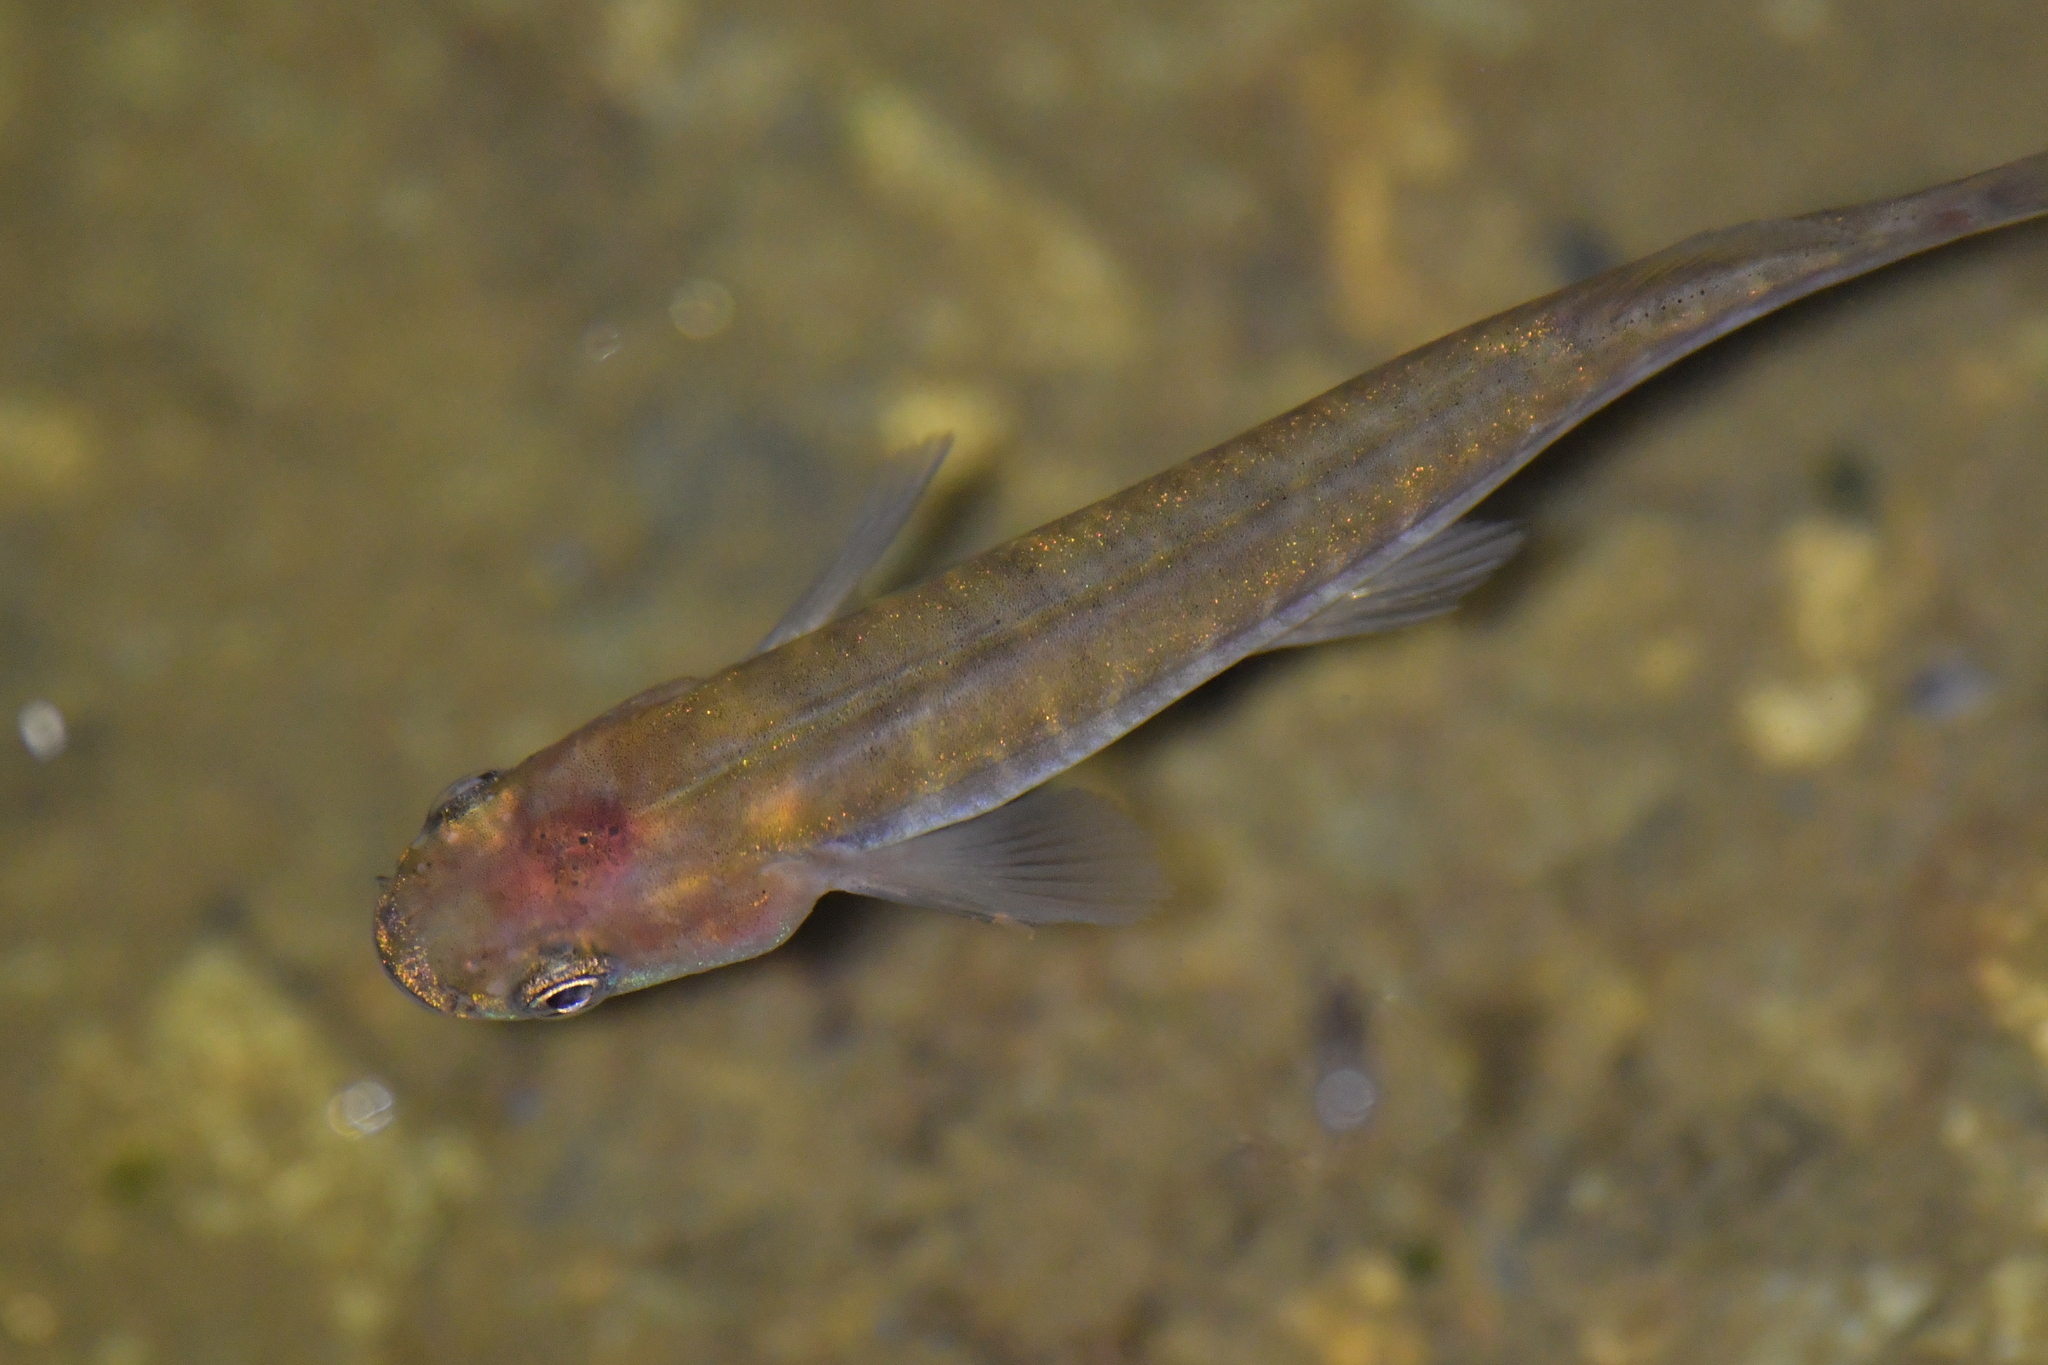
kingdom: Animalia
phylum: Chordata
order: Osmeriformes
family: Galaxiidae
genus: Galaxias
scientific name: Galaxias fasciatus
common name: Banded kokopu
